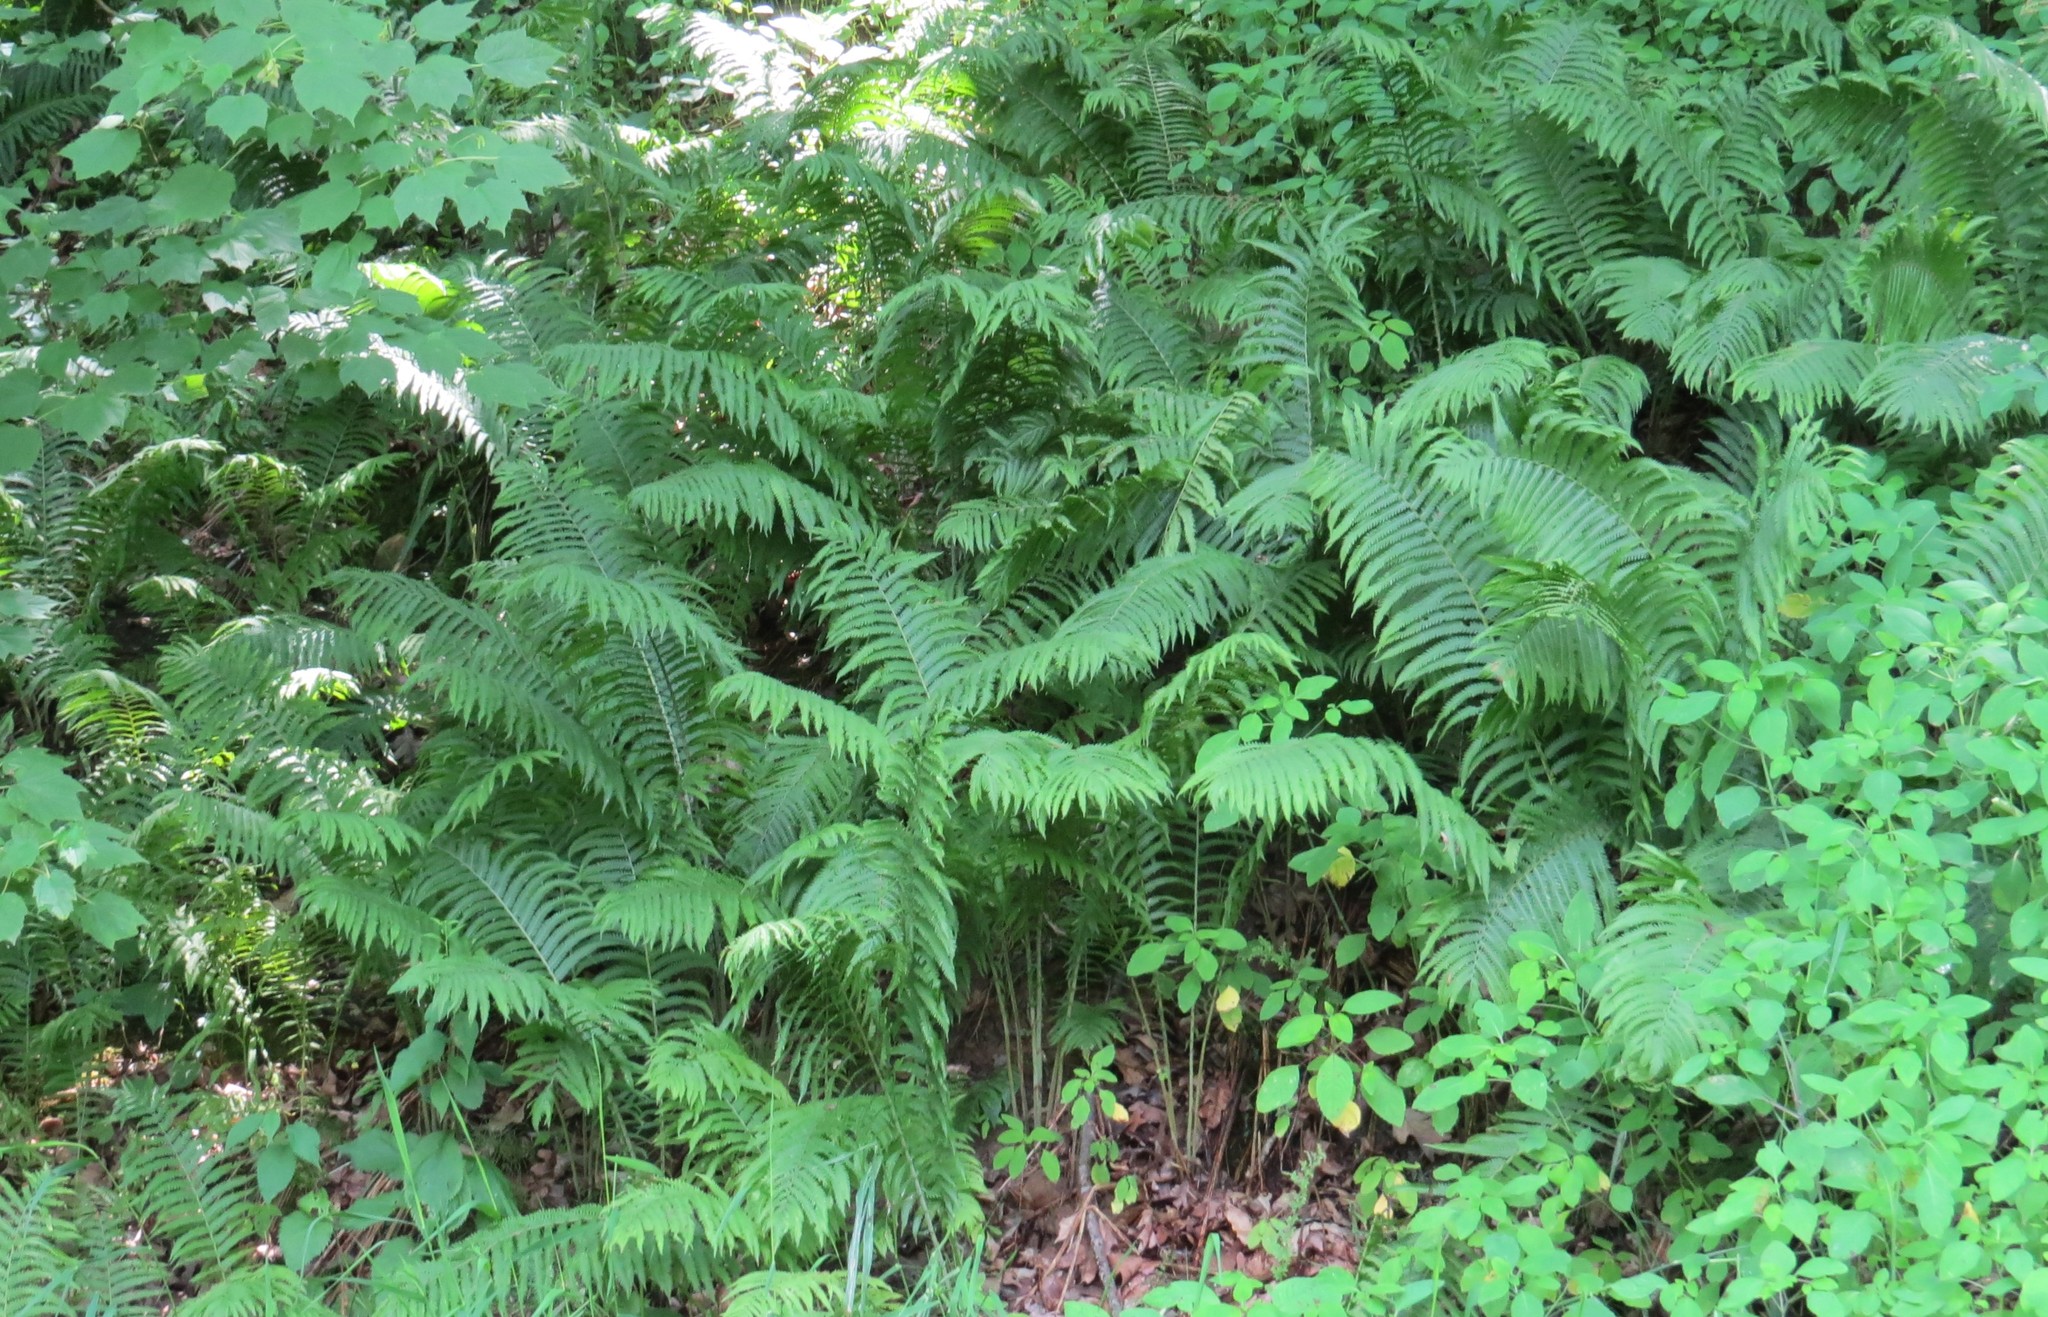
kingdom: Plantae
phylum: Tracheophyta
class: Polypodiopsida
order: Polypodiales
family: Onocleaceae
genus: Matteuccia
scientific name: Matteuccia struthiopteris
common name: Ostrich fern
